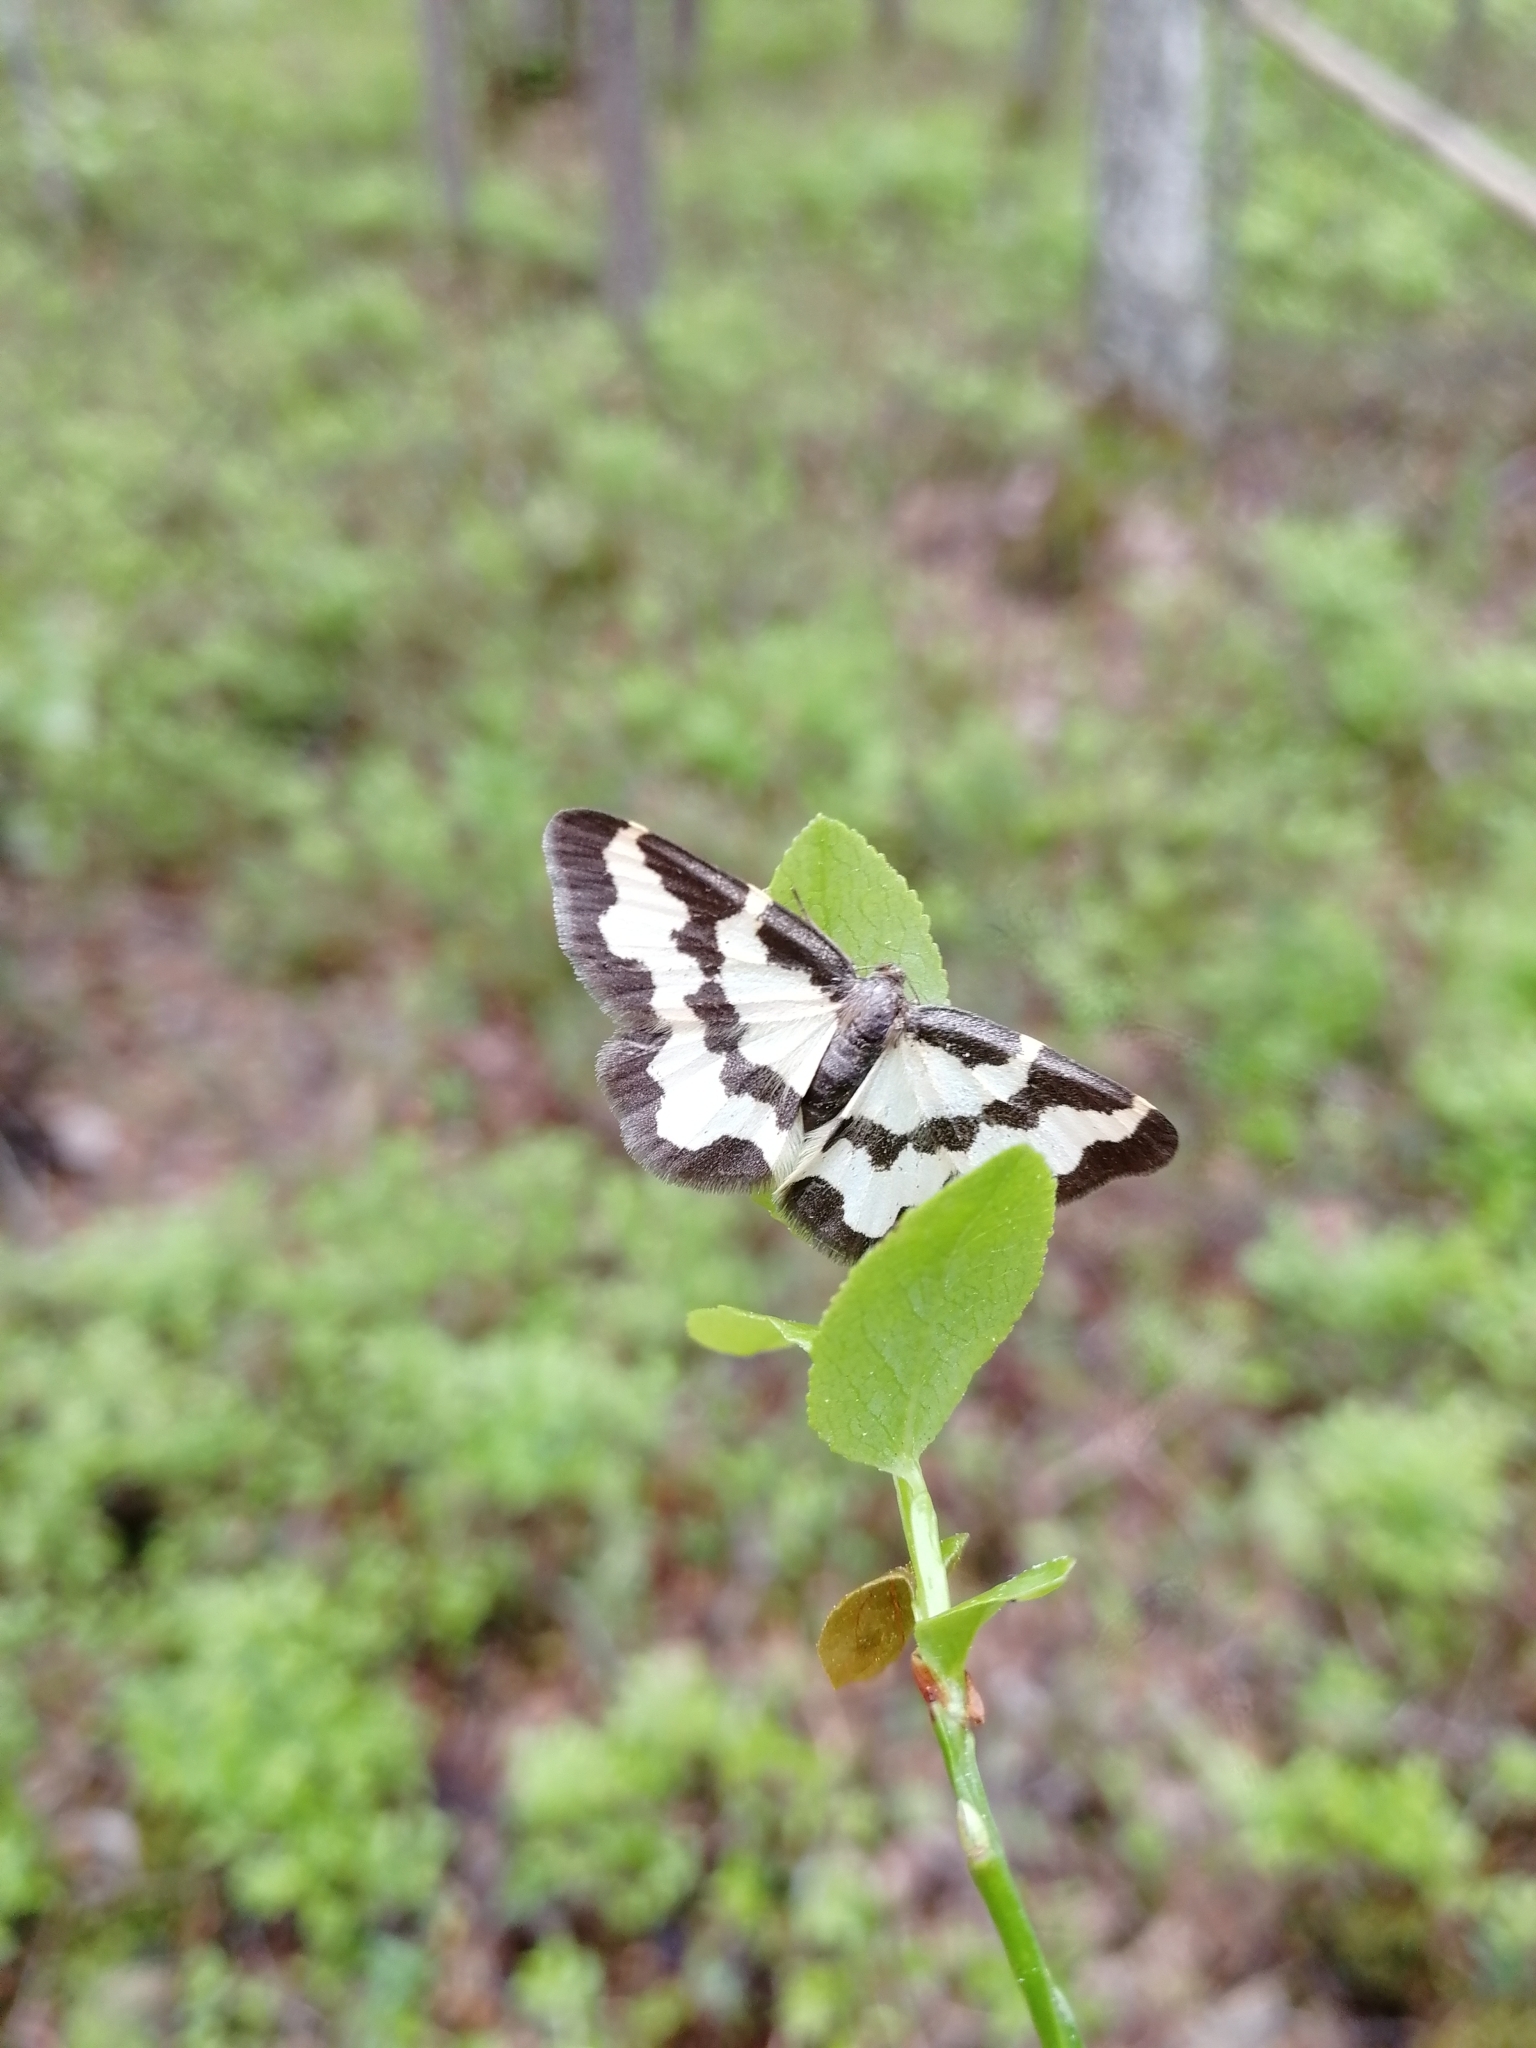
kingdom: Animalia
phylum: Arthropoda
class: Insecta
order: Lepidoptera
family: Geometridae
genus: Lomaspilis
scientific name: Lomaspilis marginata
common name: Clouded border
